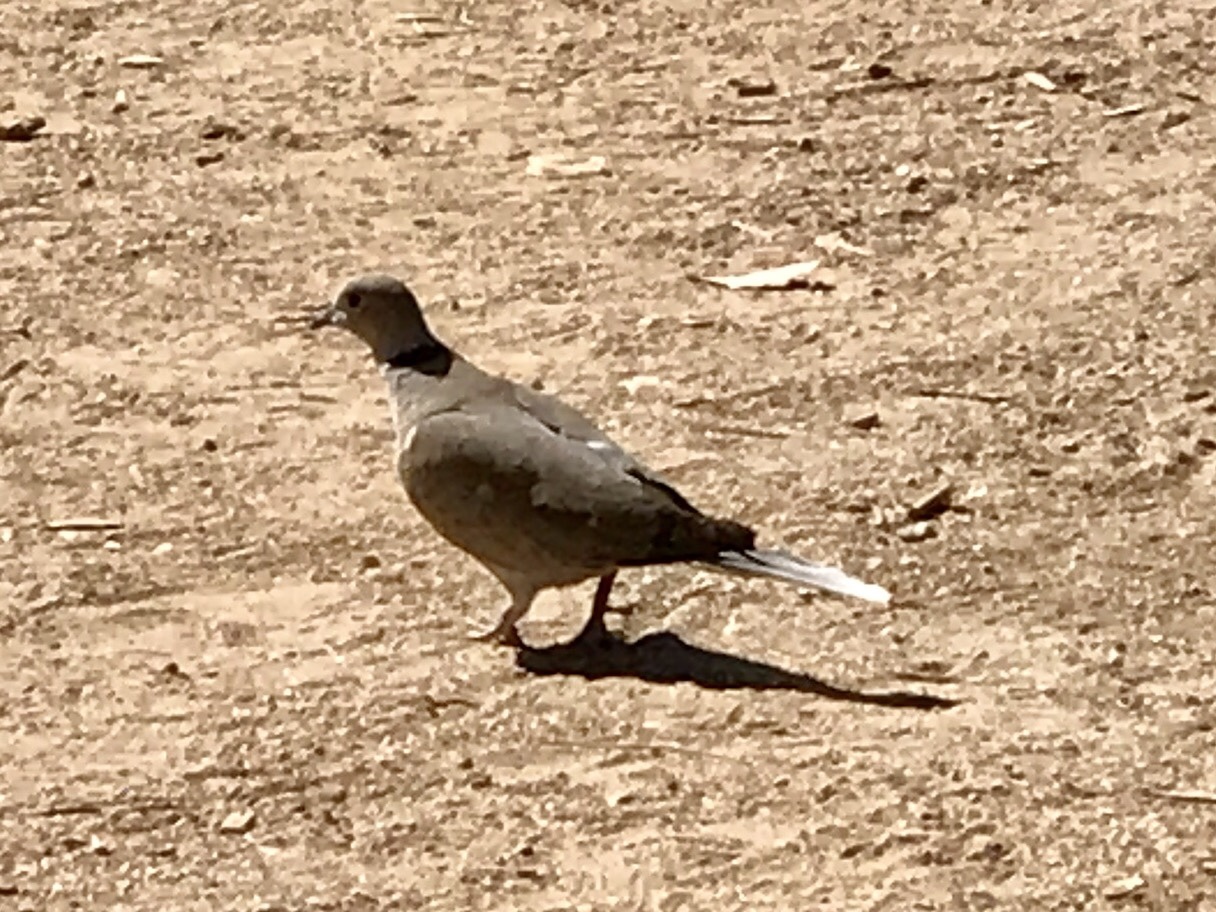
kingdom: Animalia
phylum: Chordata
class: Aves
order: Columbiformes
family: Columbidae
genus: Streptopelia
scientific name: Streptopelia decaocto
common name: Eurasian collared dove
